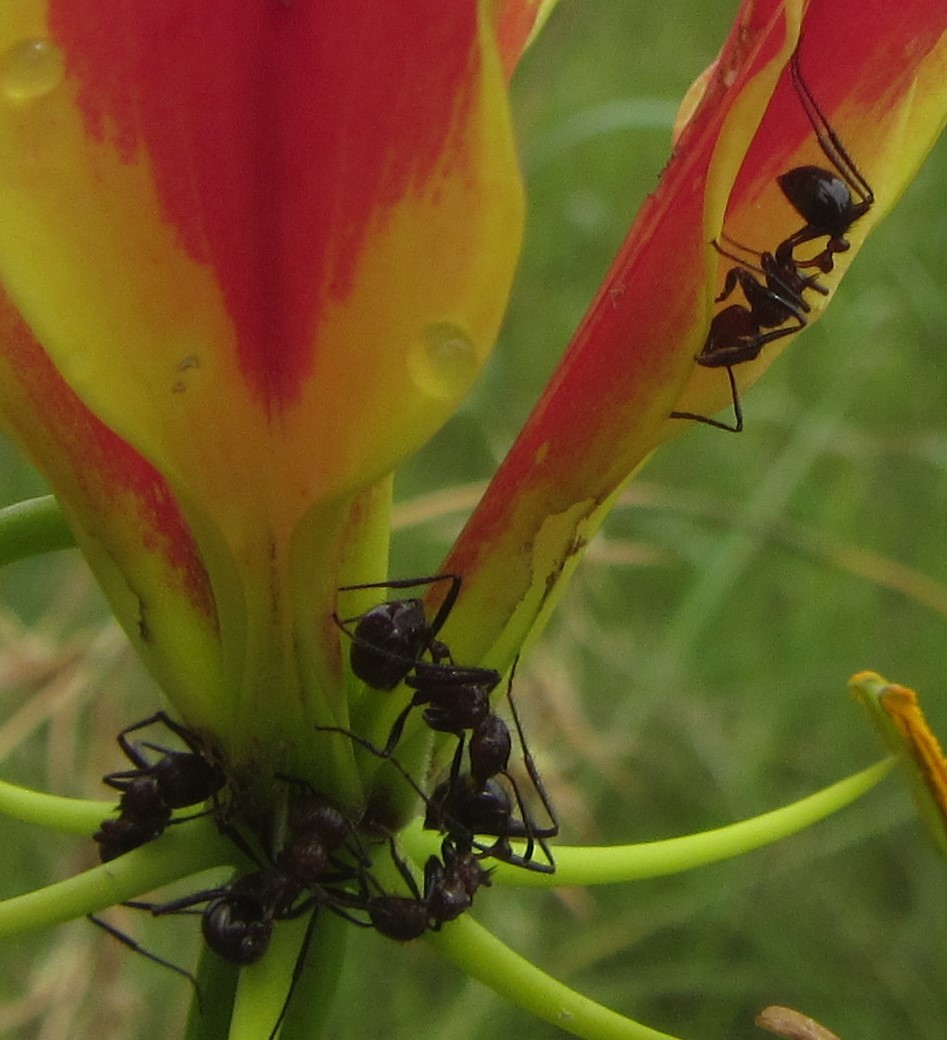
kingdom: Animalia
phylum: Arthropoda
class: Insecta
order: Hymenoptera
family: Formicidae
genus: Myrmicaria
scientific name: Myrmicaria natalensis
